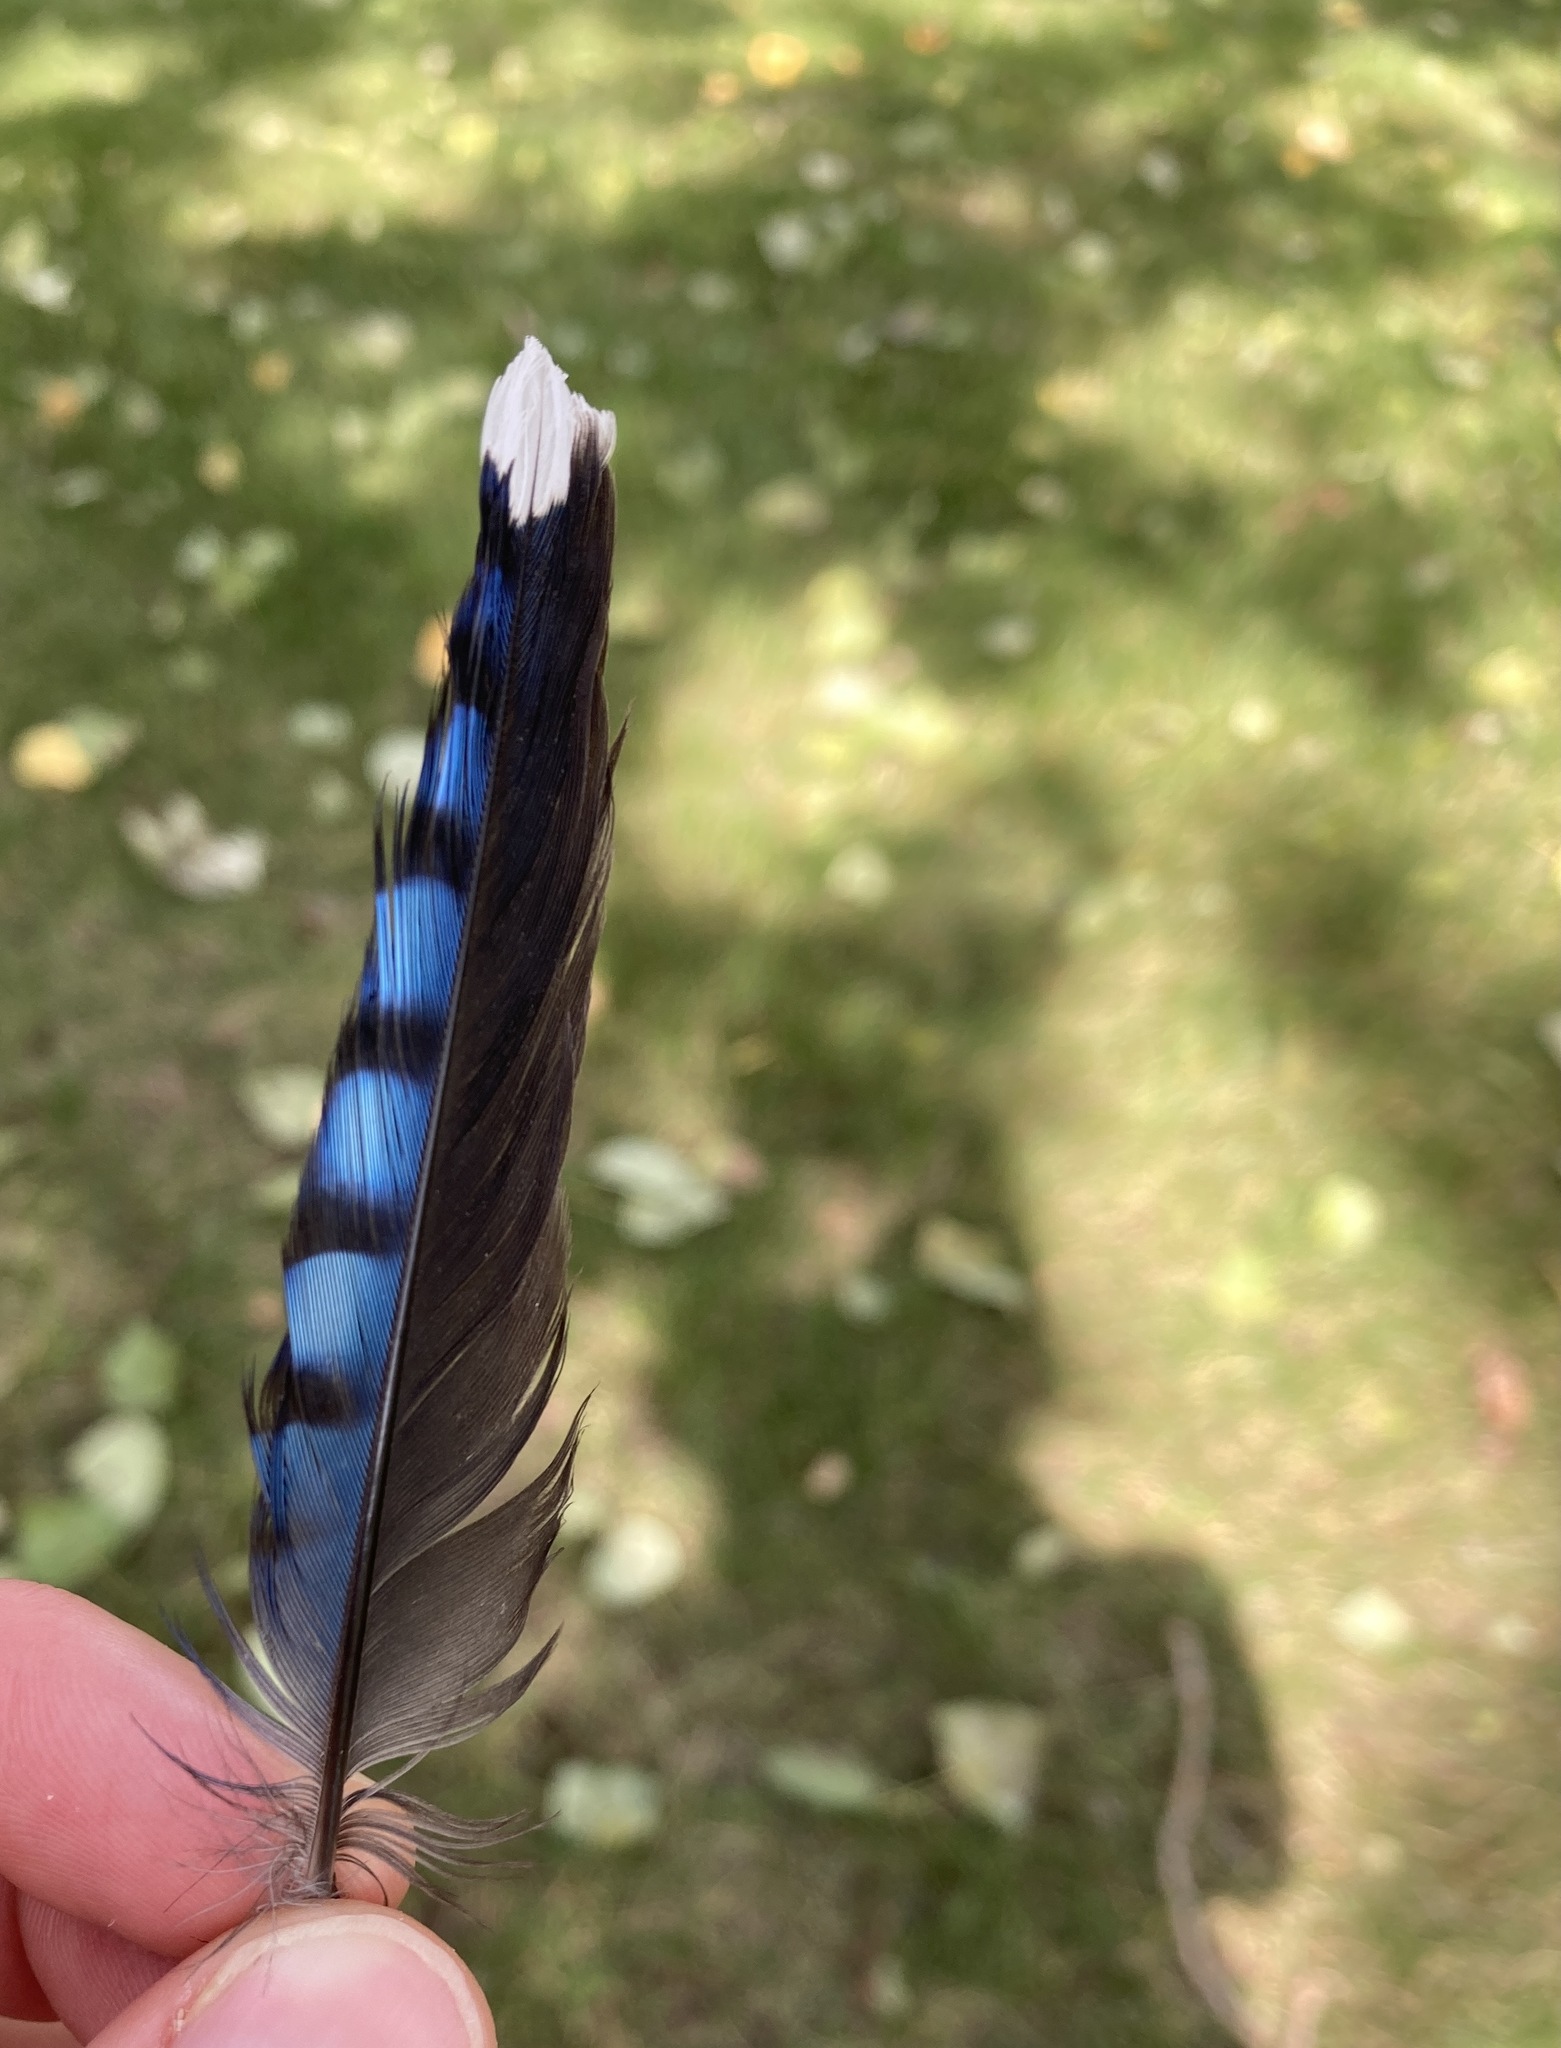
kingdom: Animalia
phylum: Chordata
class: Aves
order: Passeriformes
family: Corvidae
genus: Cyanocitta
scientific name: Cyanocitta cristata
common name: Blue jay
